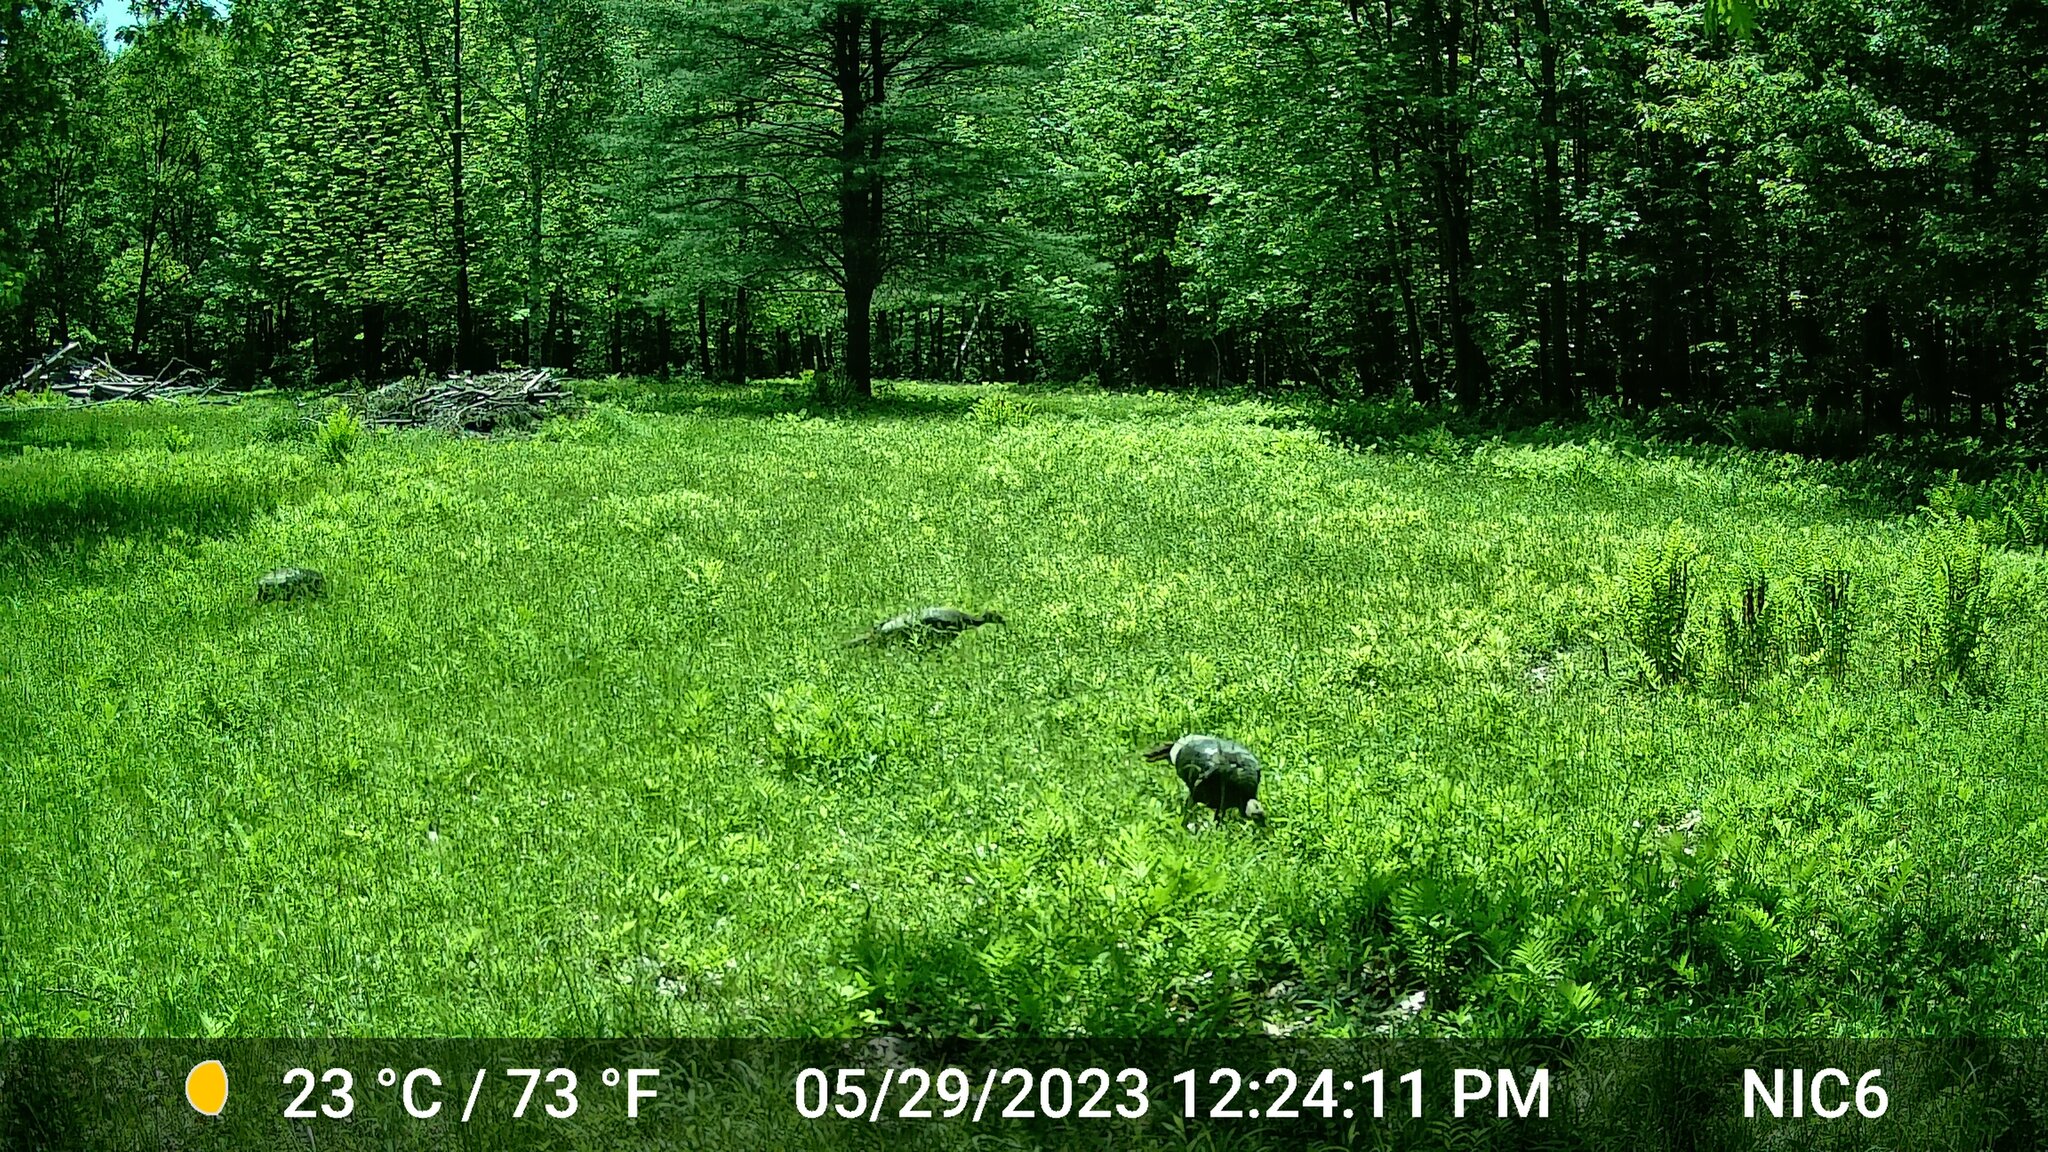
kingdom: Animalia
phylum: Chordata
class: Aves
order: Galliformes
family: Phasianidae
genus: Meleagris
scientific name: Meleagris gallopavo
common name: Wild turkey
